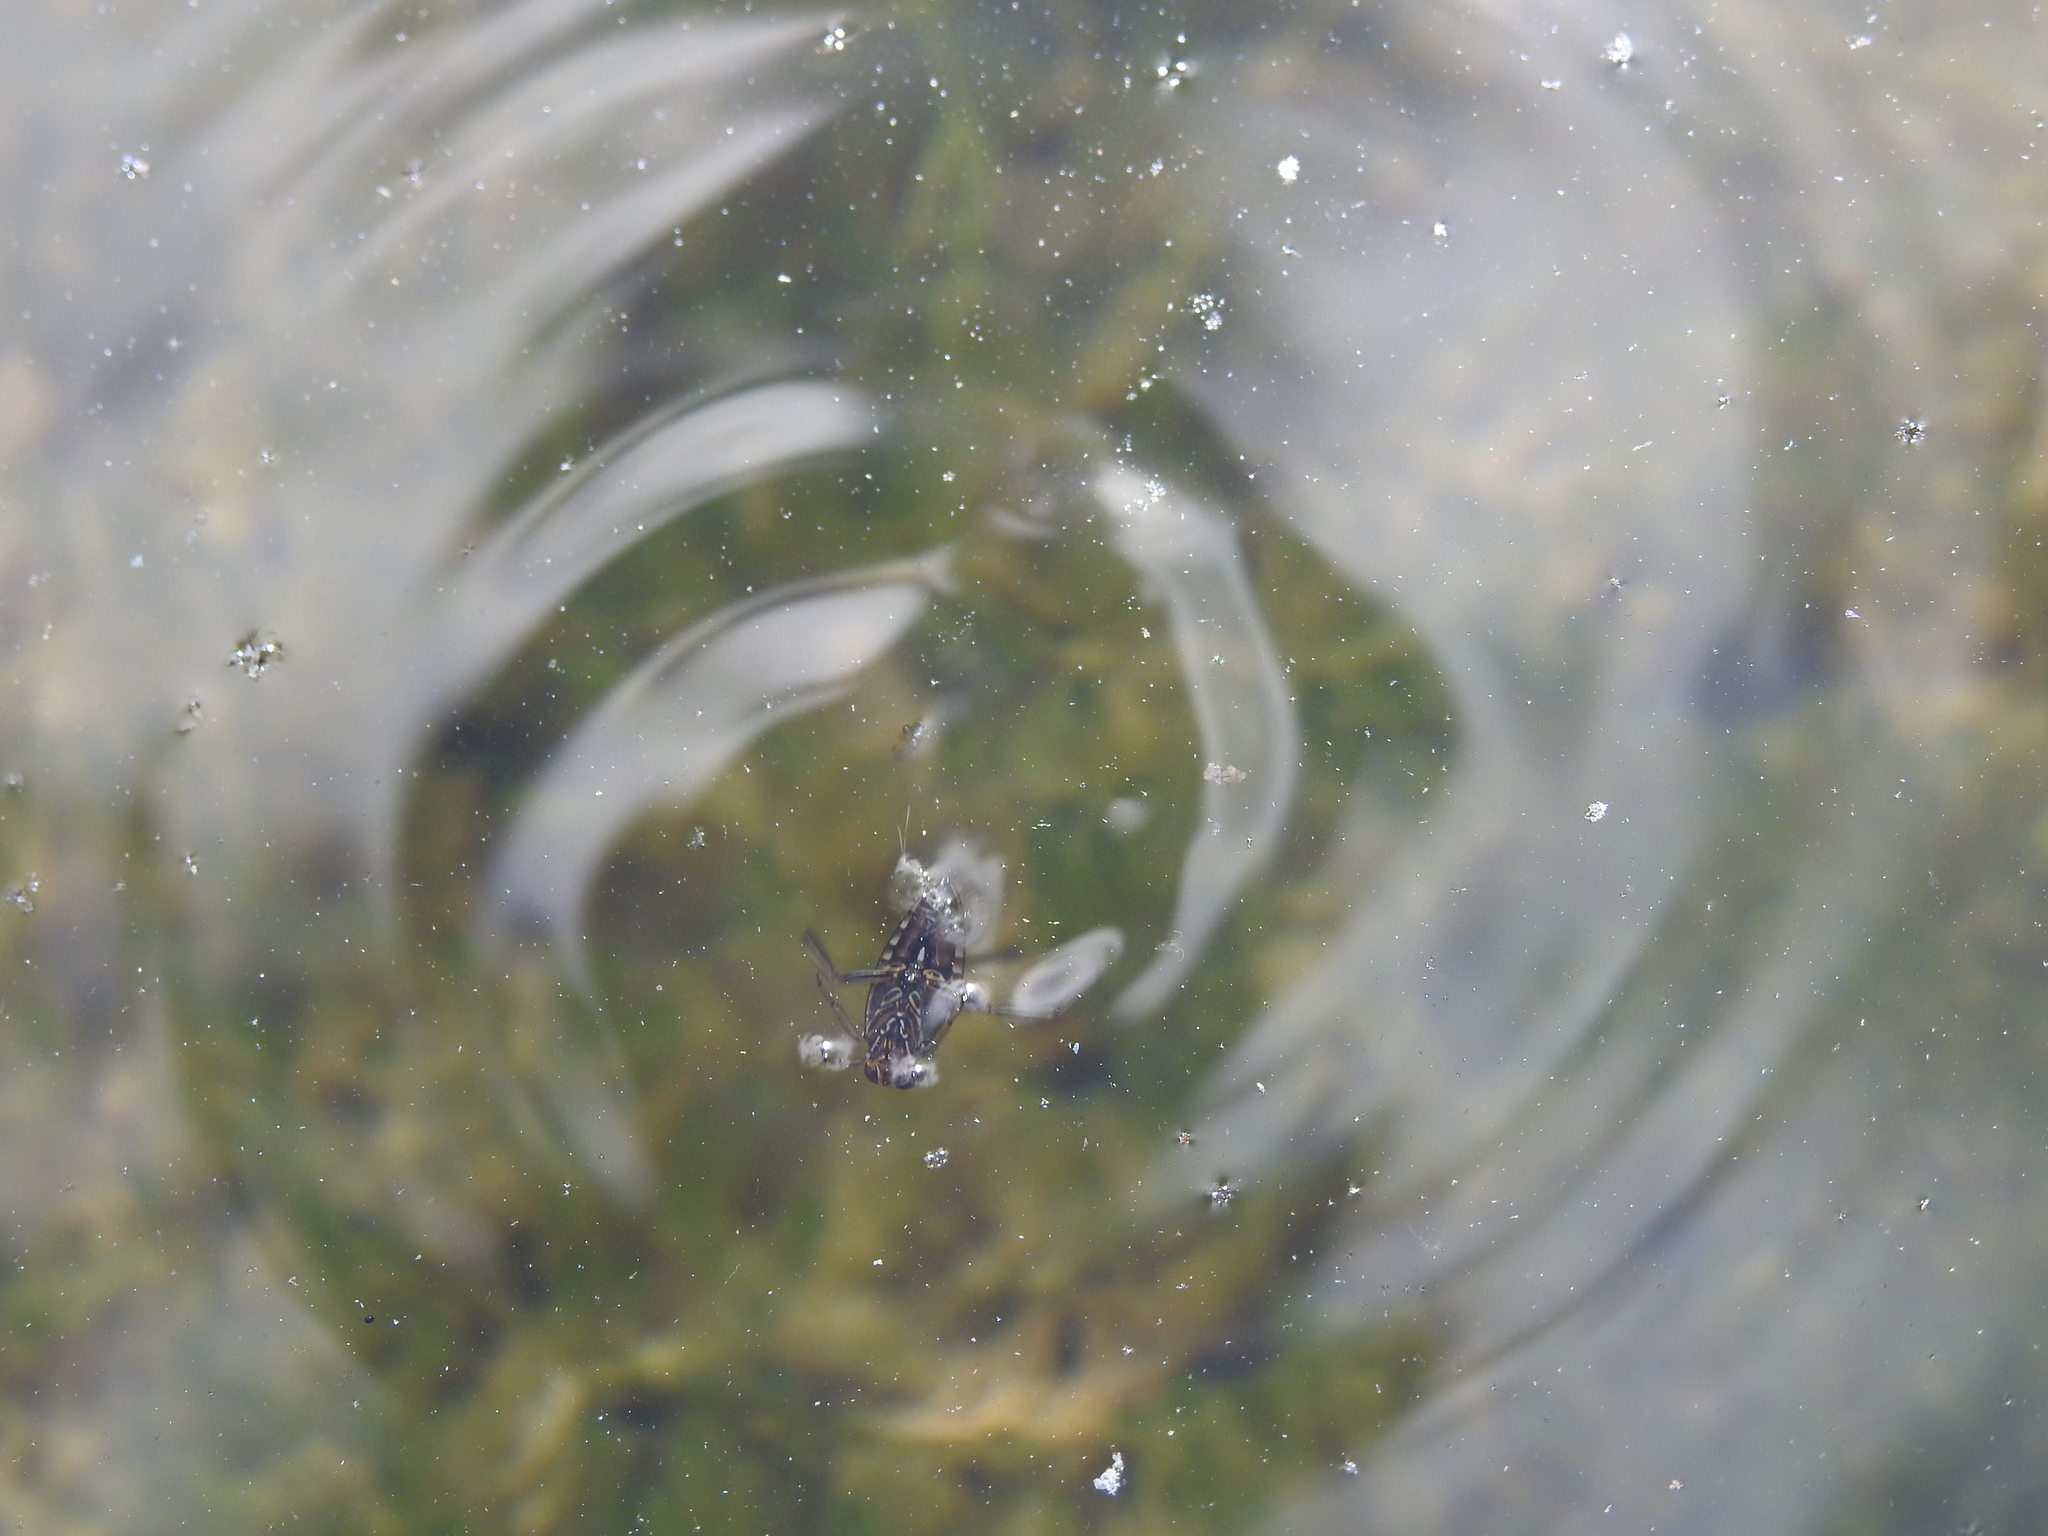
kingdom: Animalia
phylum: Arthropoda
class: Insecta
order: Hemiptera
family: Notonectidae
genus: Notonecta
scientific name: Notonecta
